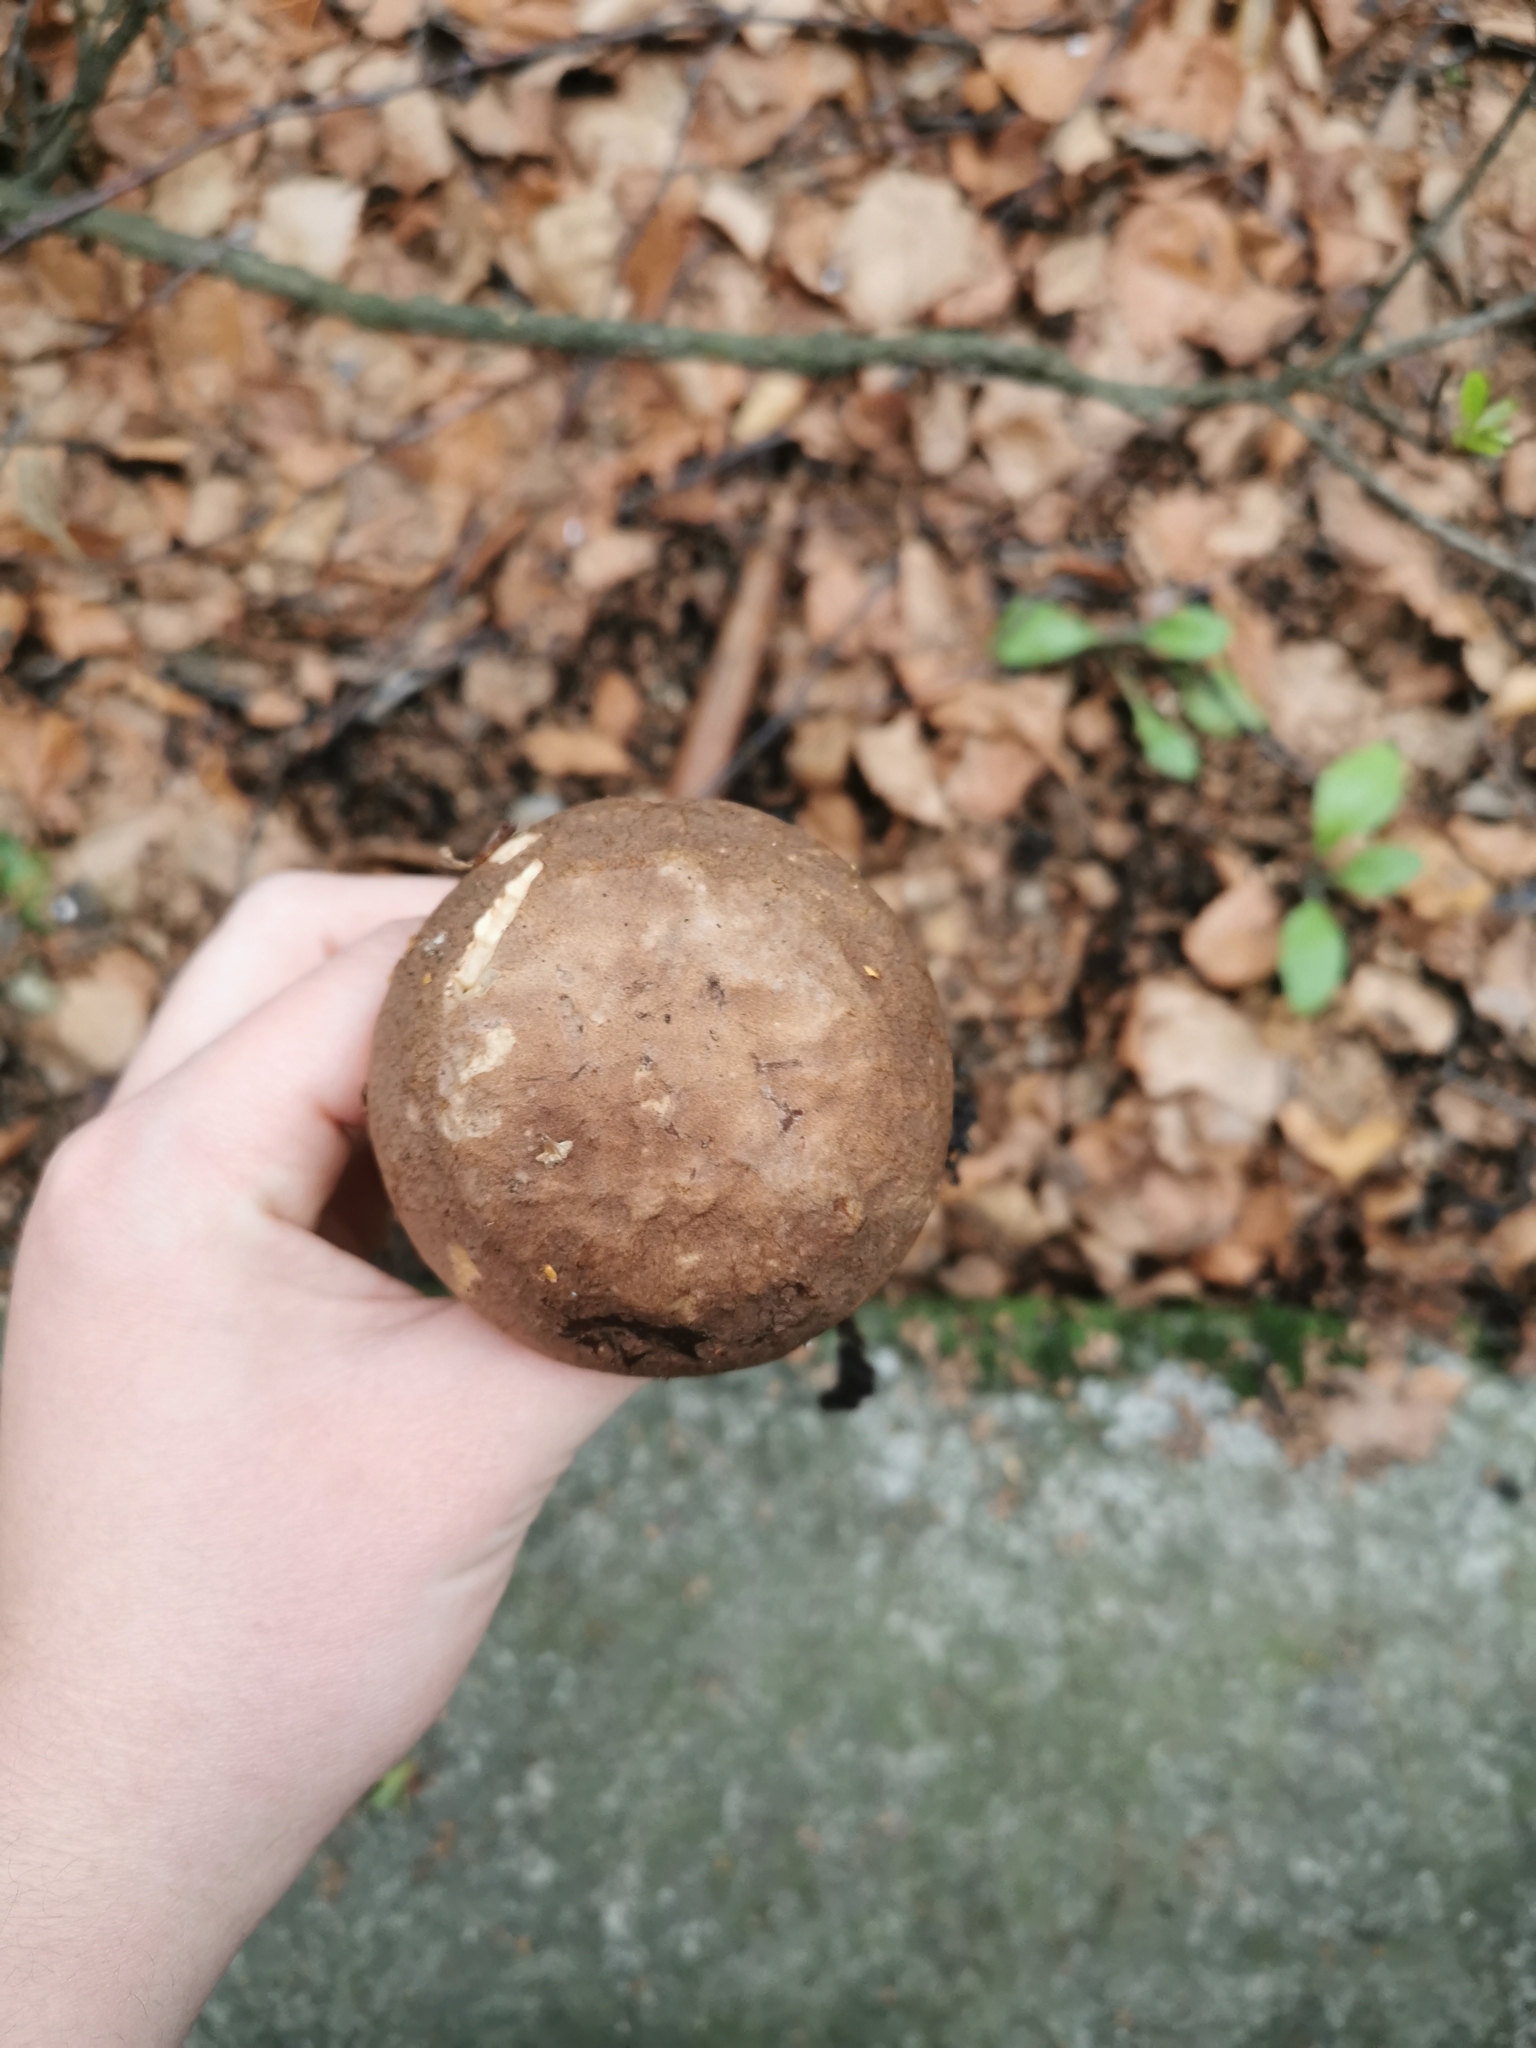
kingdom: Fungi
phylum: Basidiomycota
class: Agaricomycetes
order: Boletales
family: Boletaceae
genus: Leccinum
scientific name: Leccinum scabrum
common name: Blushing bolete
